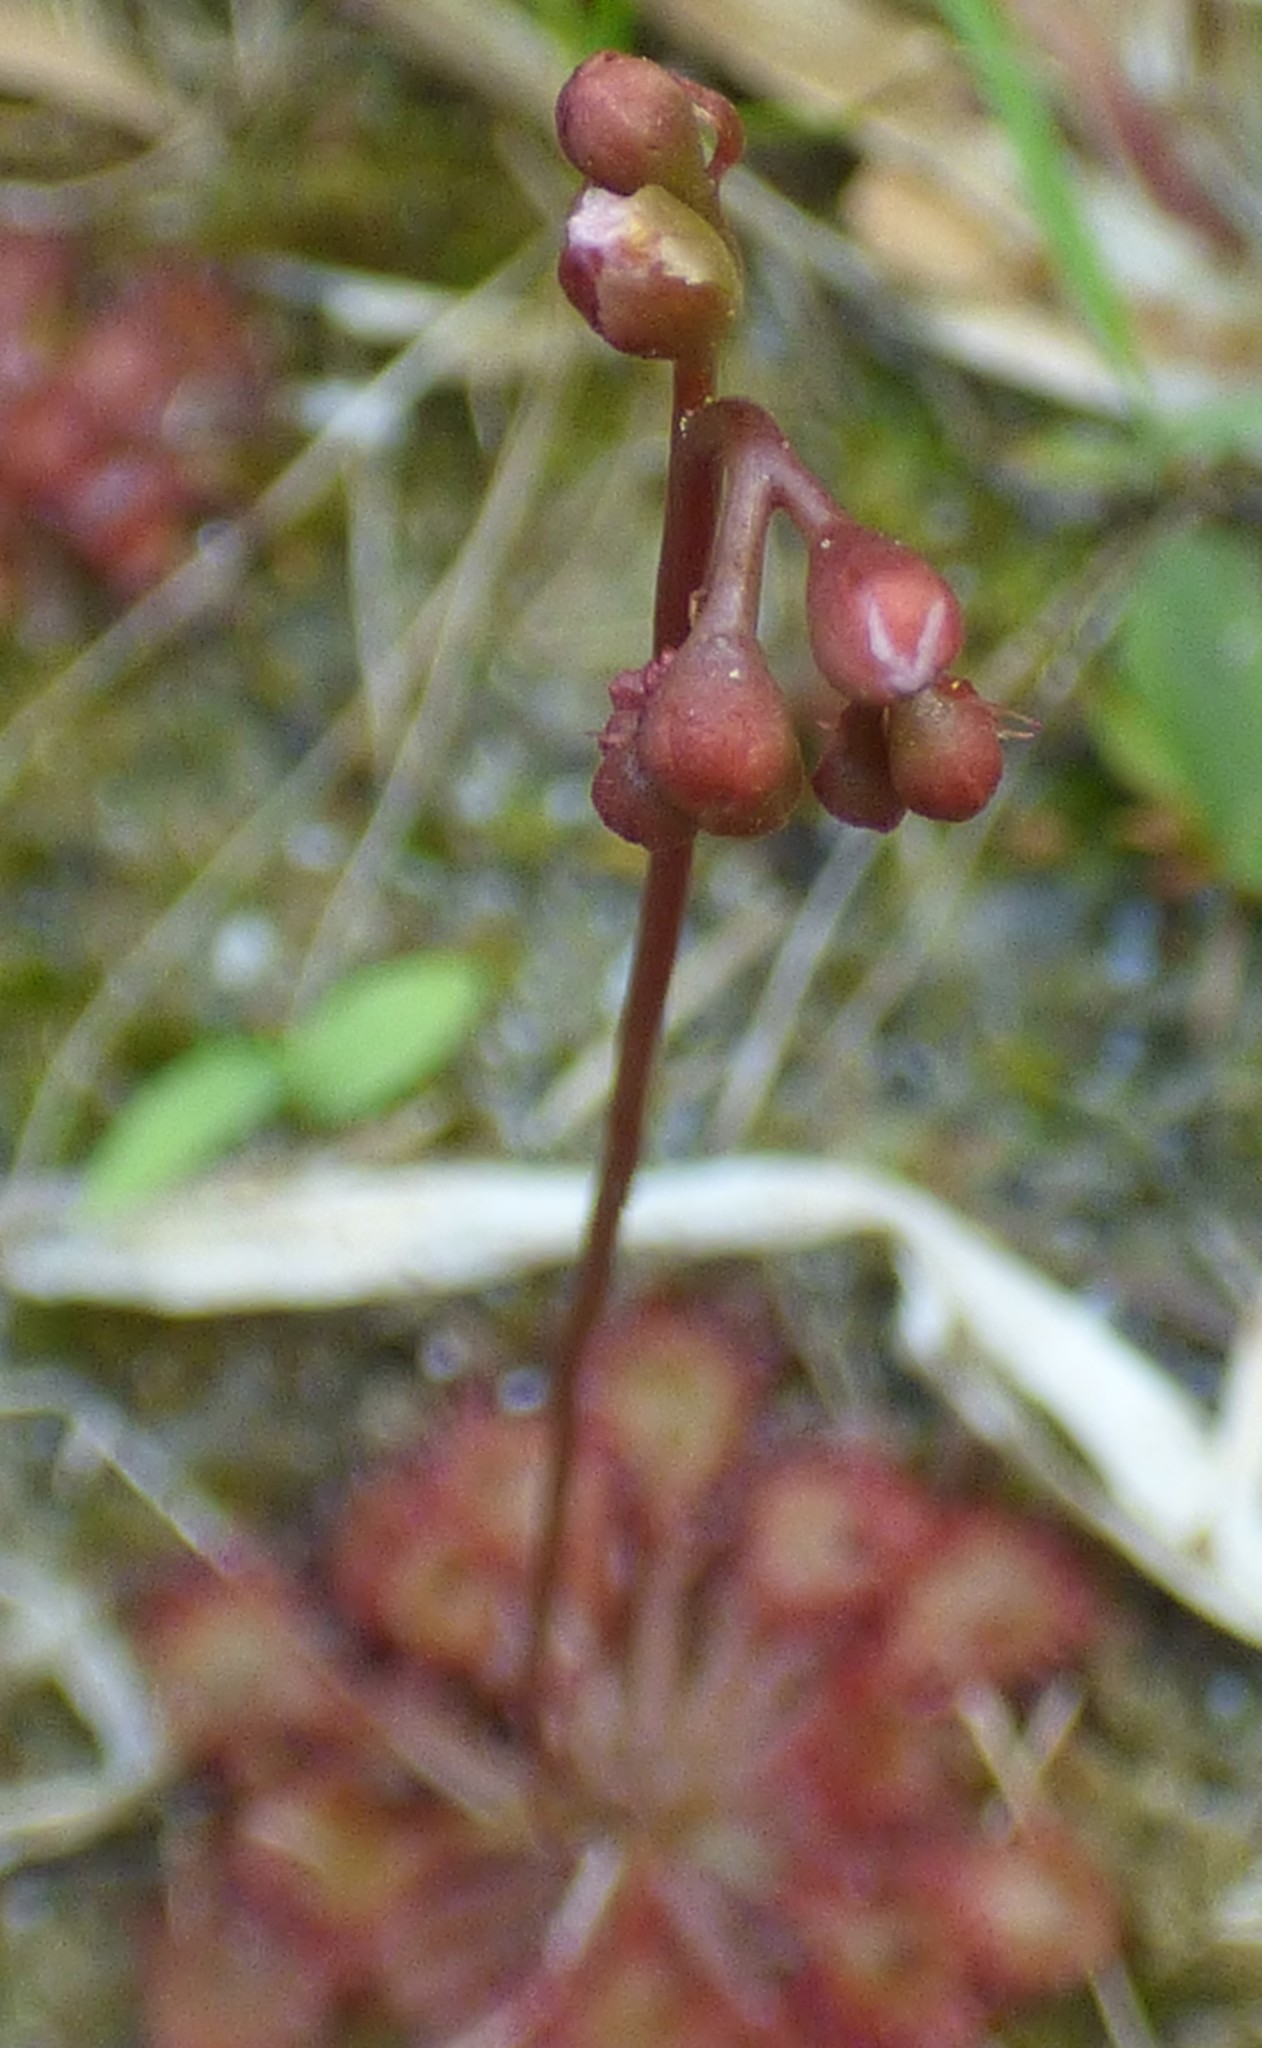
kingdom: Plantae
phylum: Tracheophyta
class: Magnoliopsida
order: Caryophyllales
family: Droseraceae
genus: Drosera
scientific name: Drosera capillaris
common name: Pink sundew
